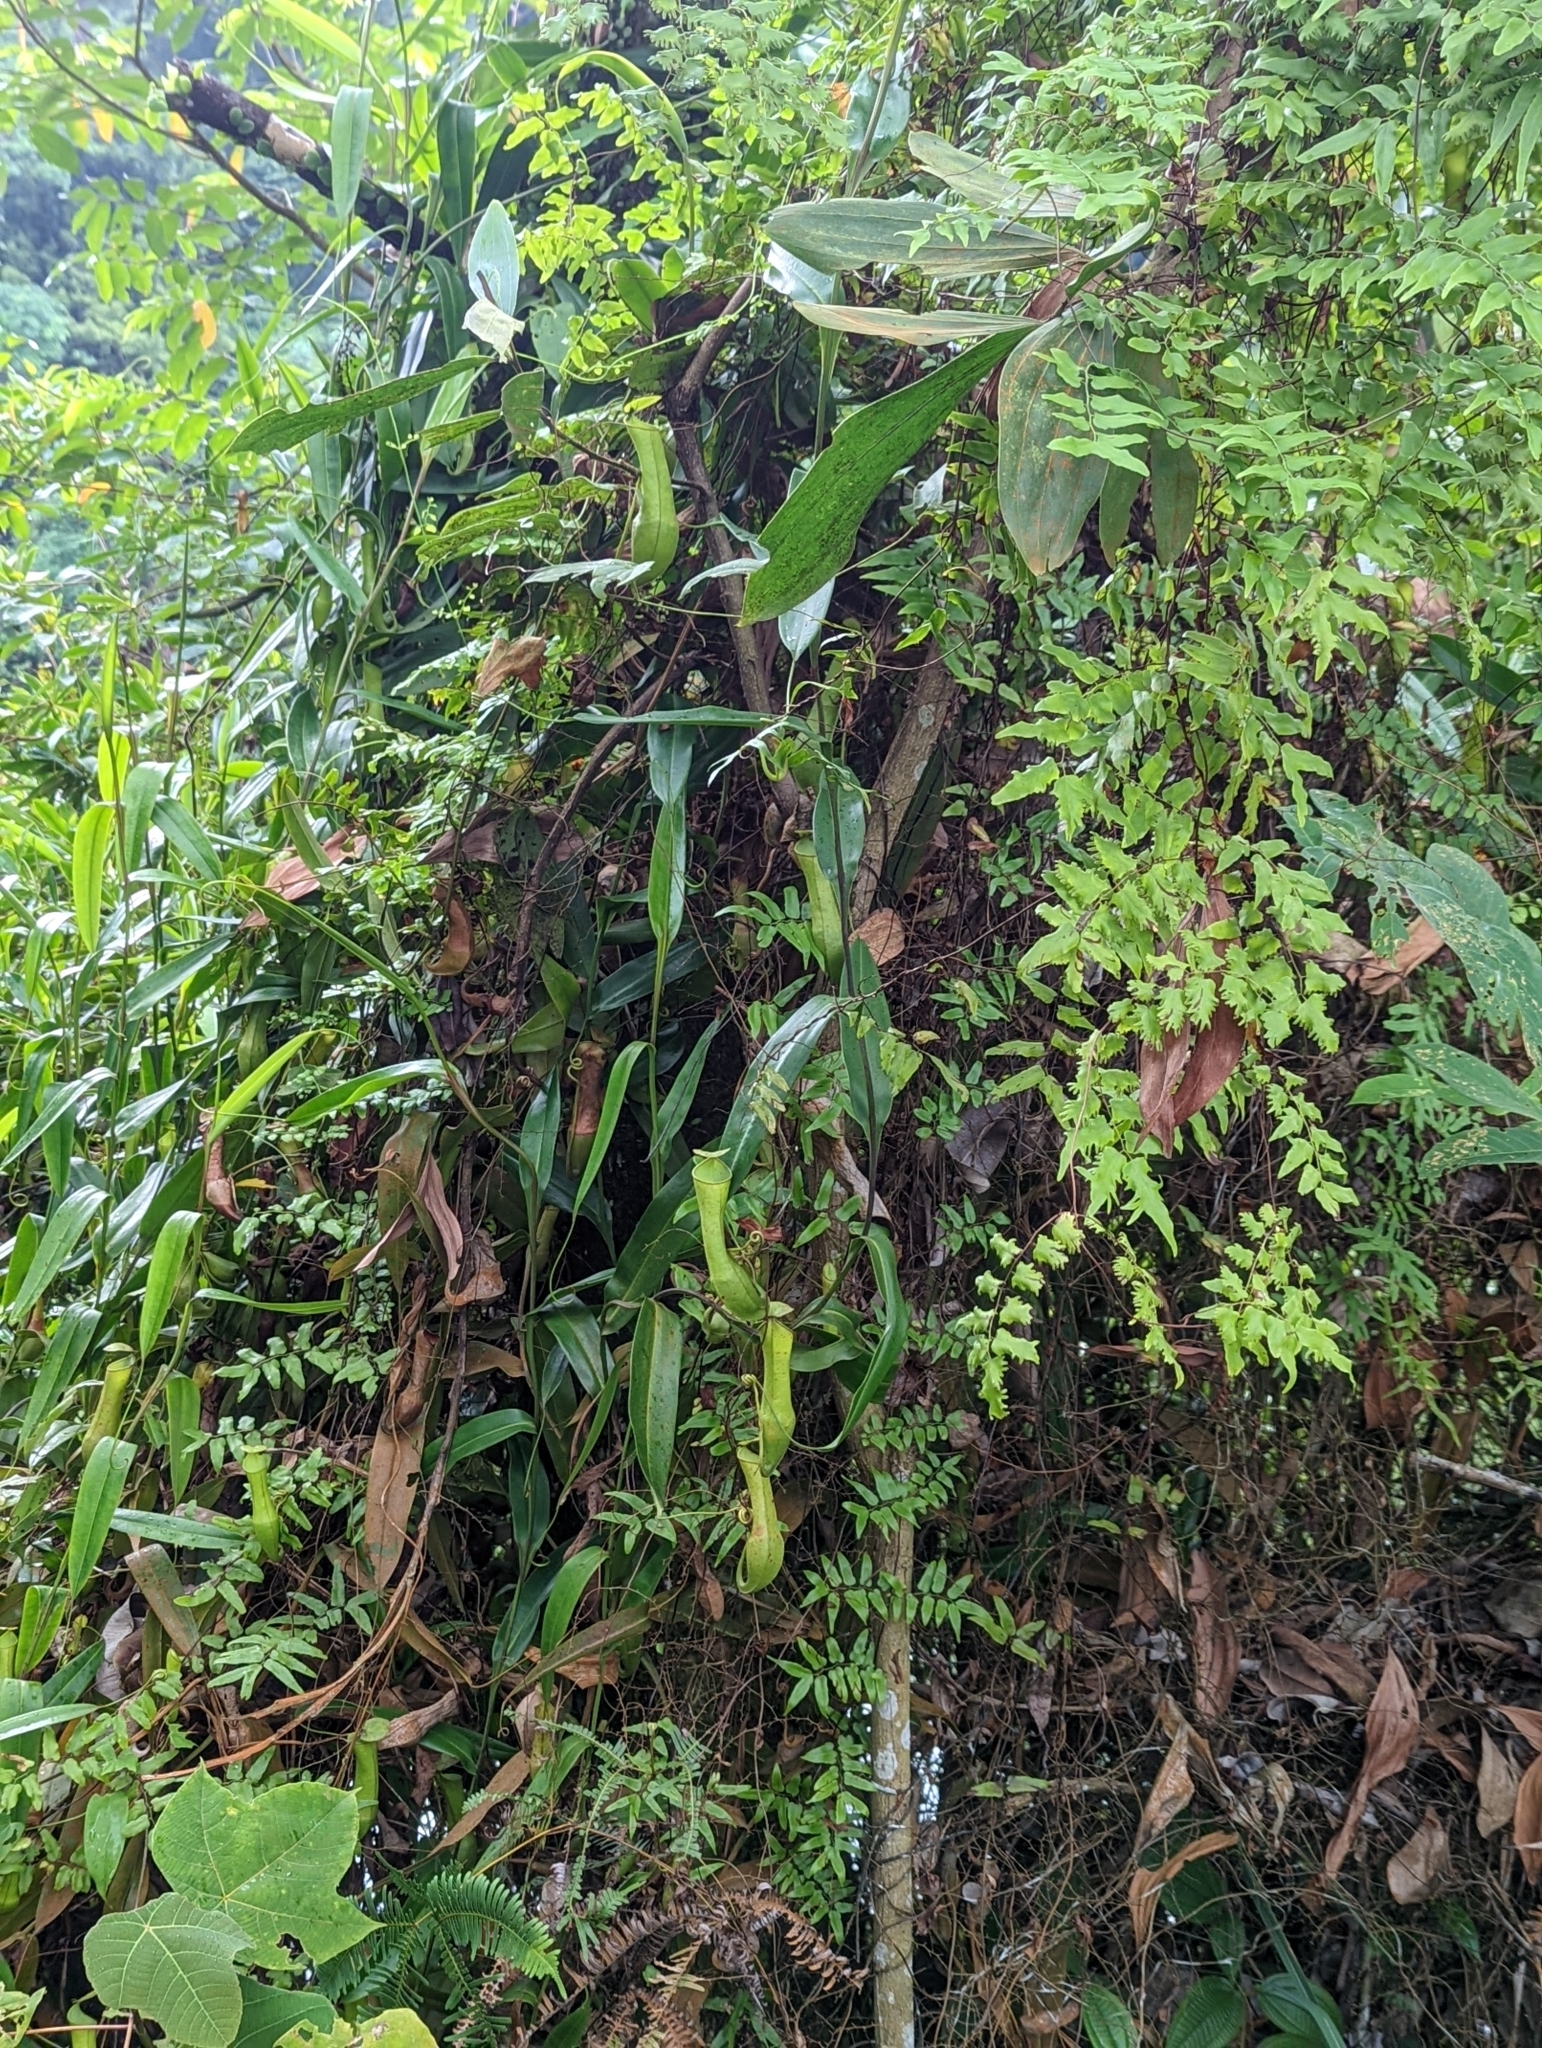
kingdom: Plantae
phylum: Tracheophyta
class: Magnoliopsida
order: Caryophyllales
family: Nepenthaceae
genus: Nepenthes
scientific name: Nepenthes gracilis
